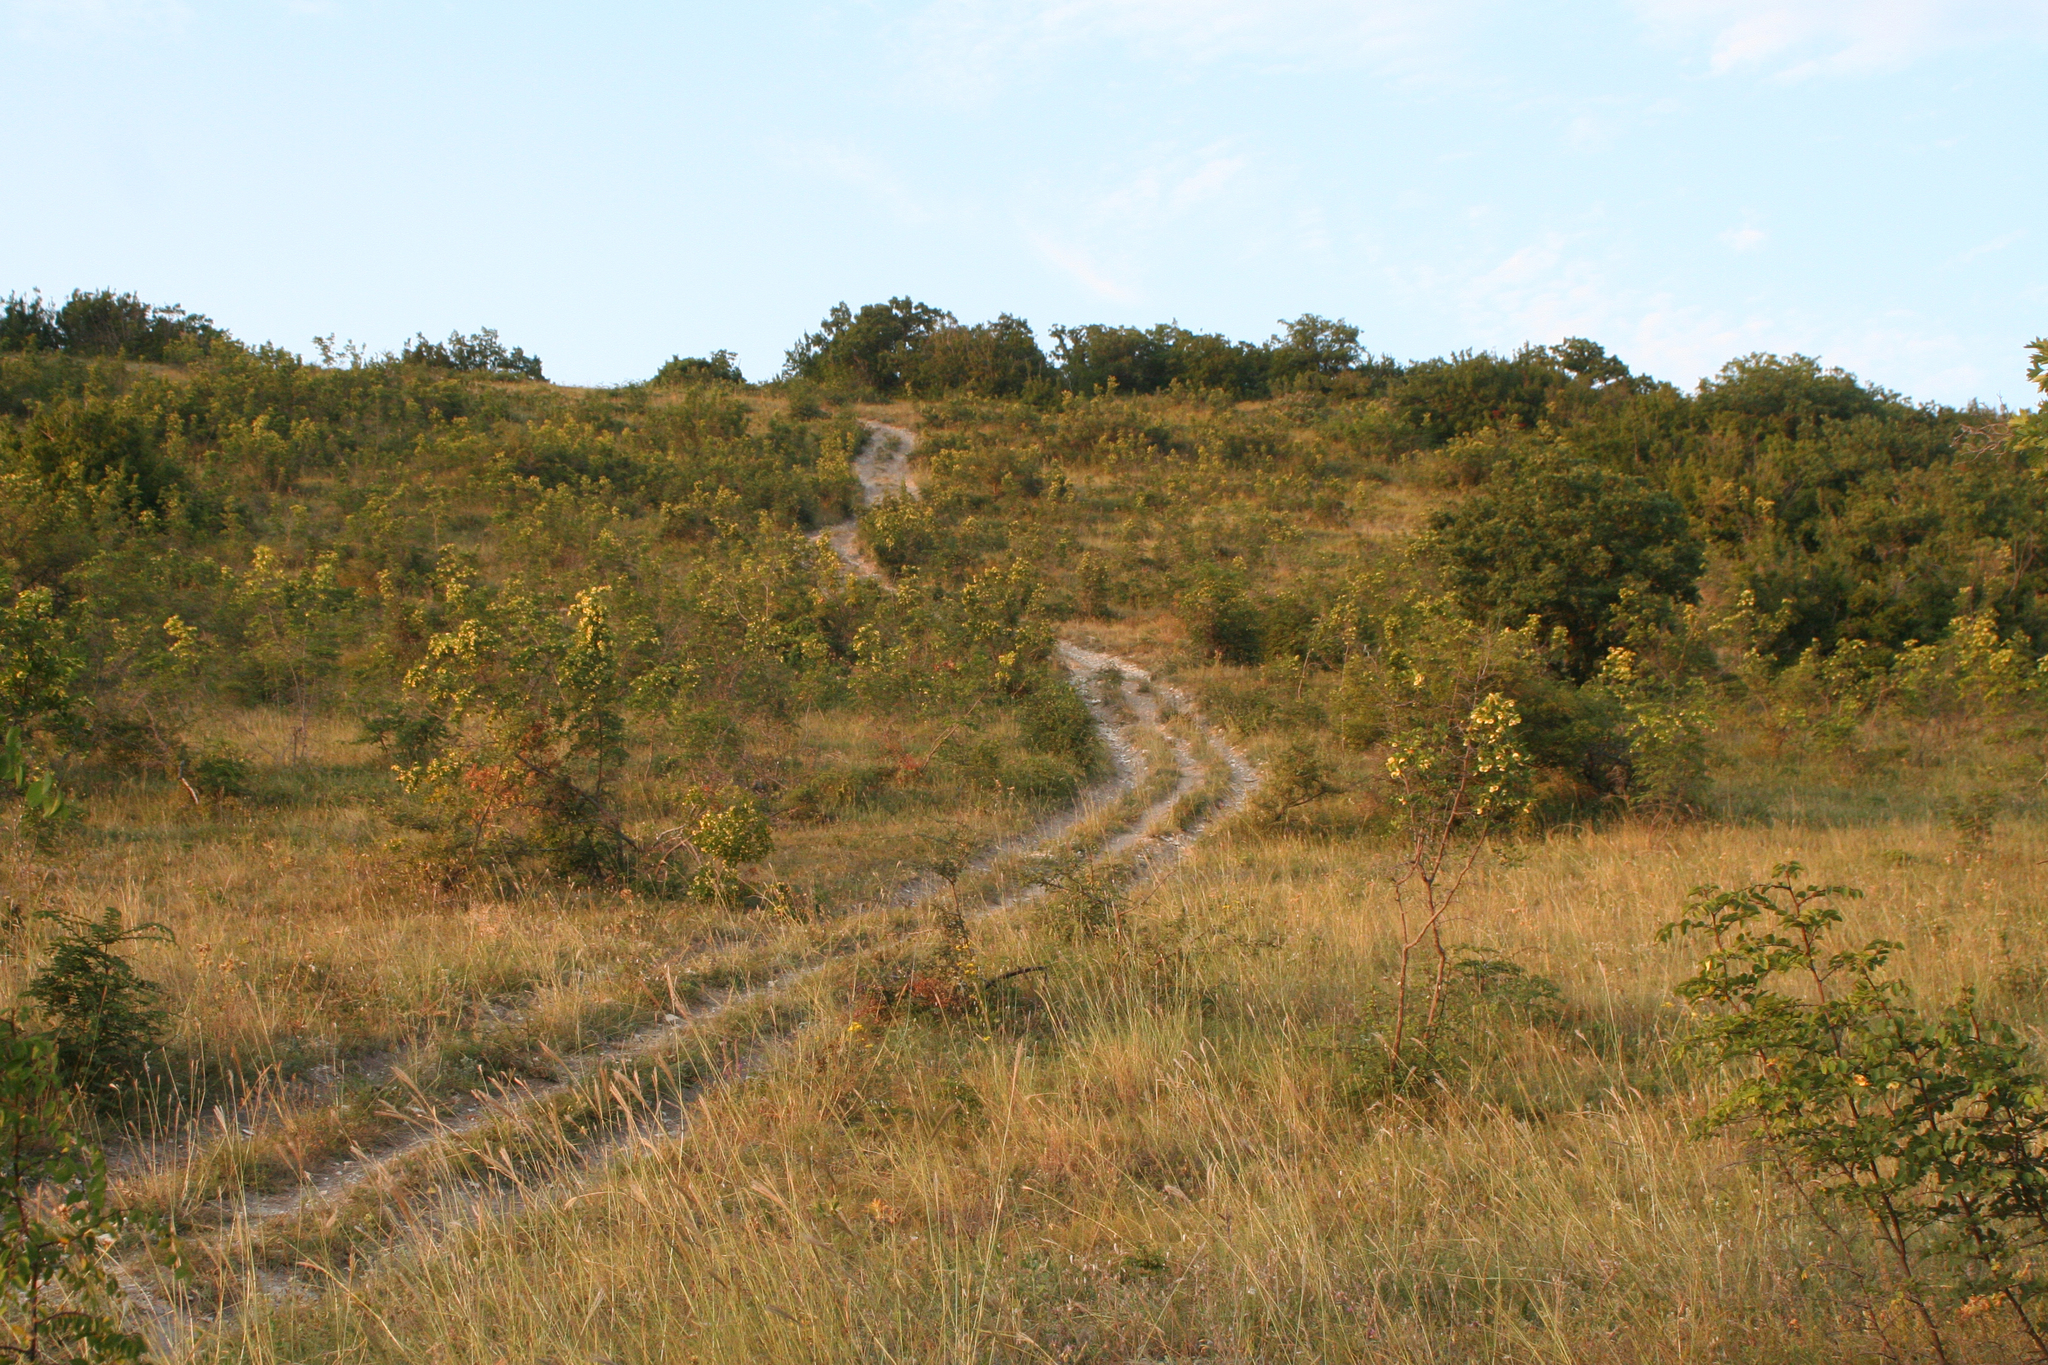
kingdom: Plantae
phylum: Tracheophyta
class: Magnoliopsida
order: Rosales
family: Rhamnaceae
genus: Paliurus
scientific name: Paliurus spina-christi
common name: Jeruselem thorn
